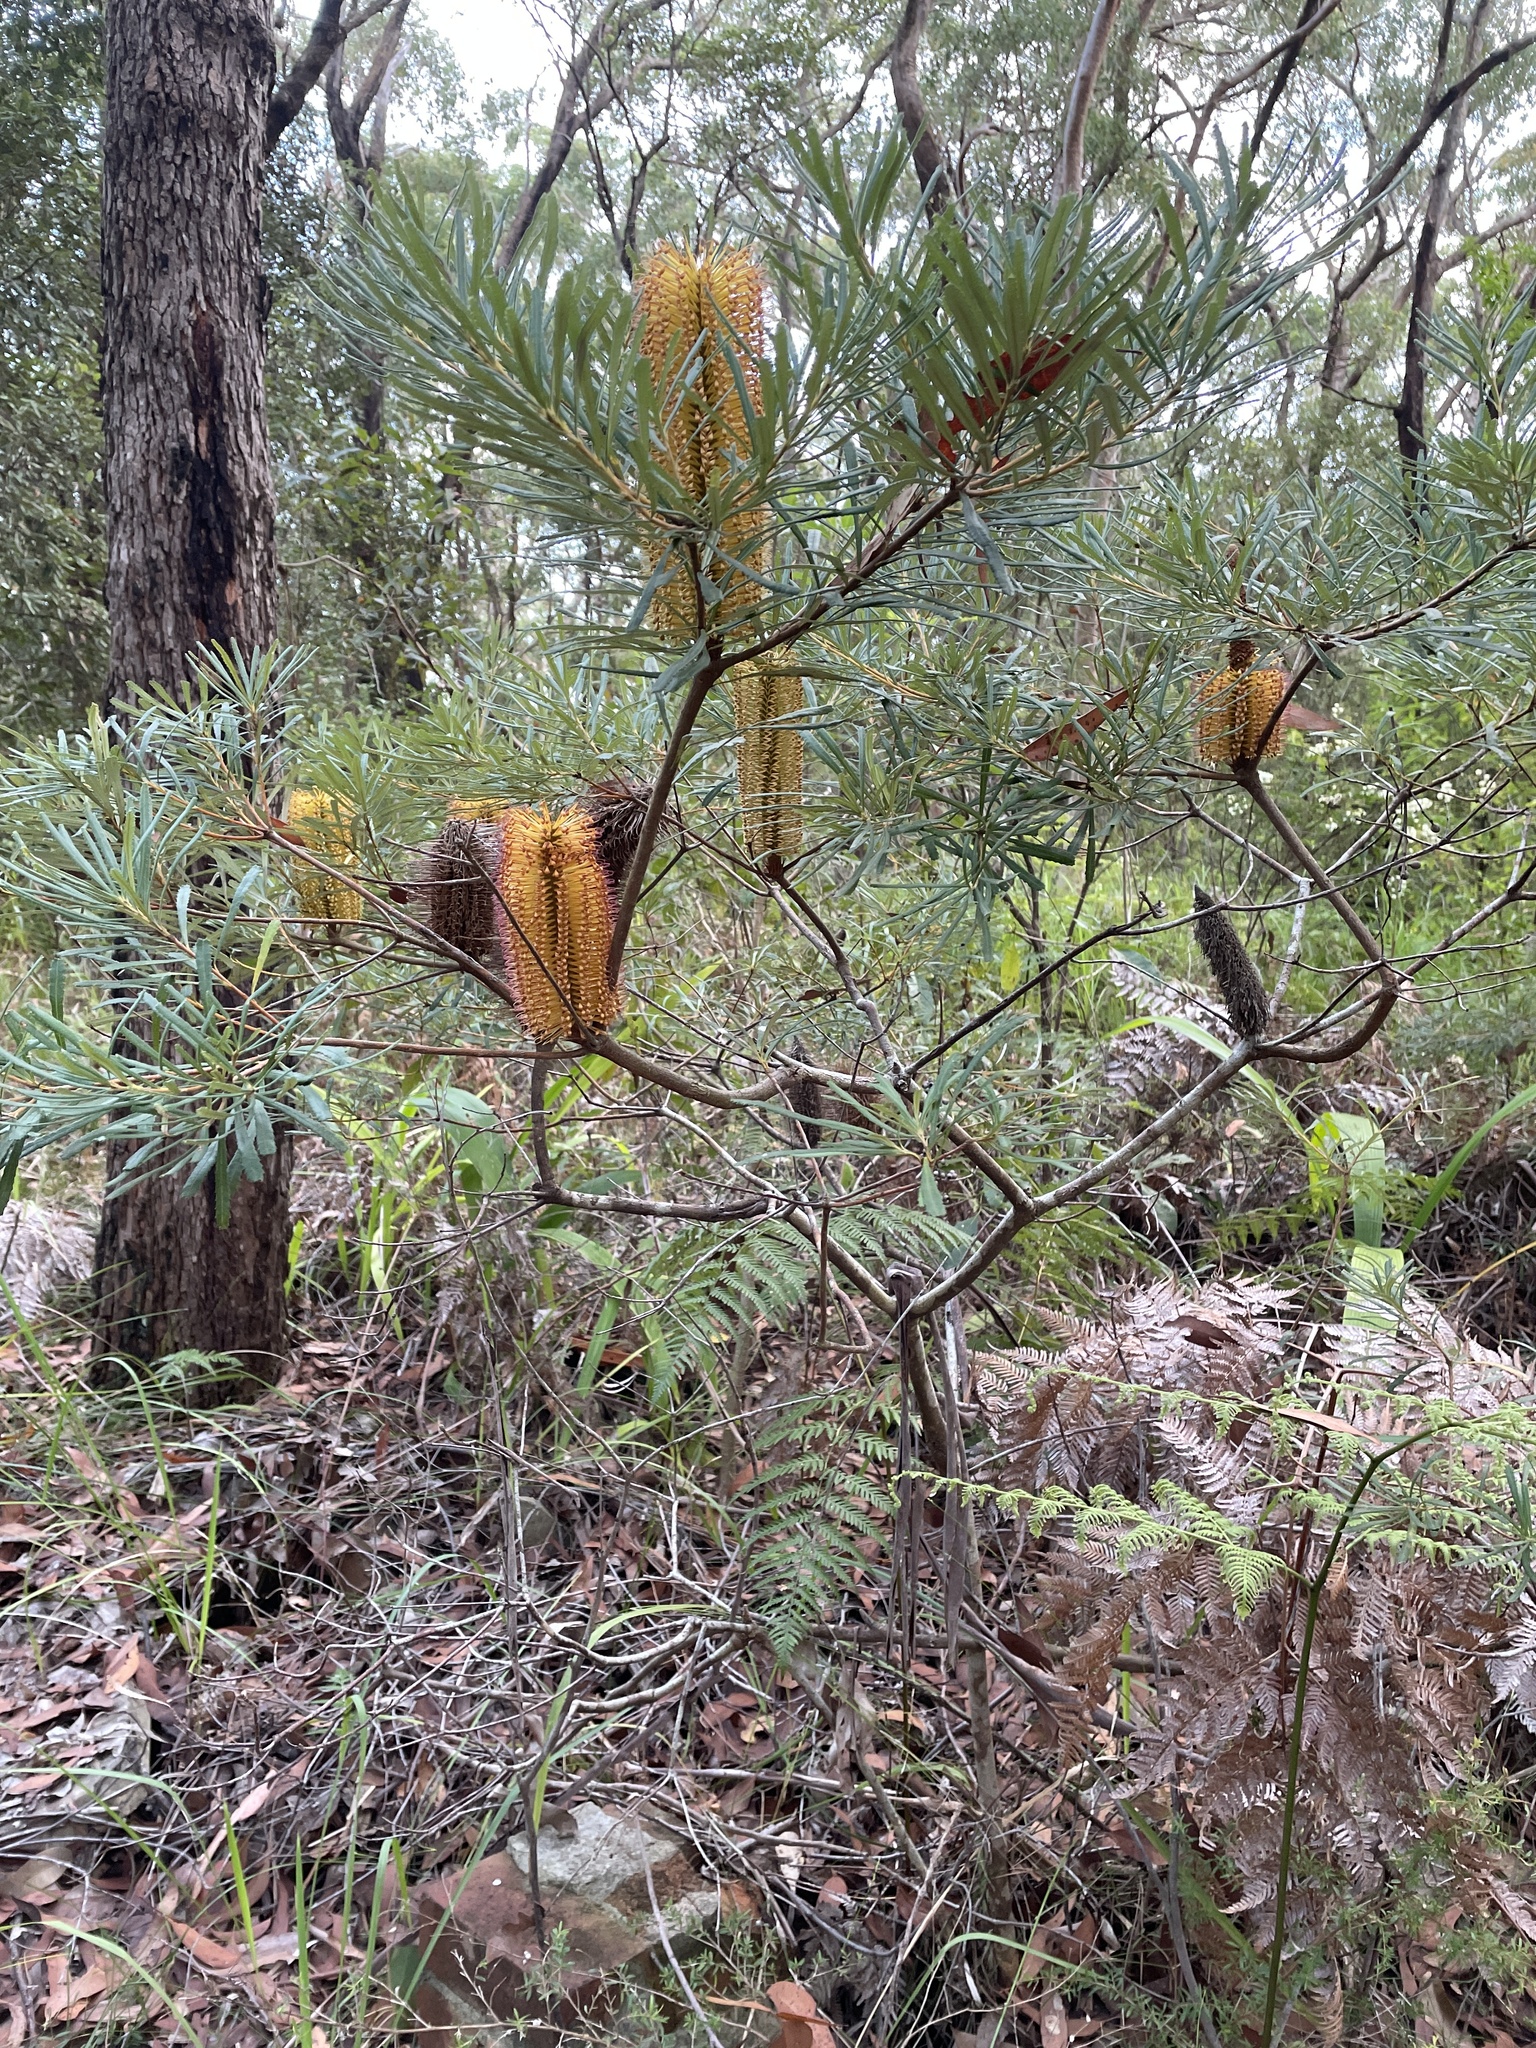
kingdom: Plantae
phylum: Tracheophyta
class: Magnoliopsida
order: Proteales
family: Proteaceae
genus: Banksia
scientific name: Banksia spinulosa
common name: Hairpin banksia
